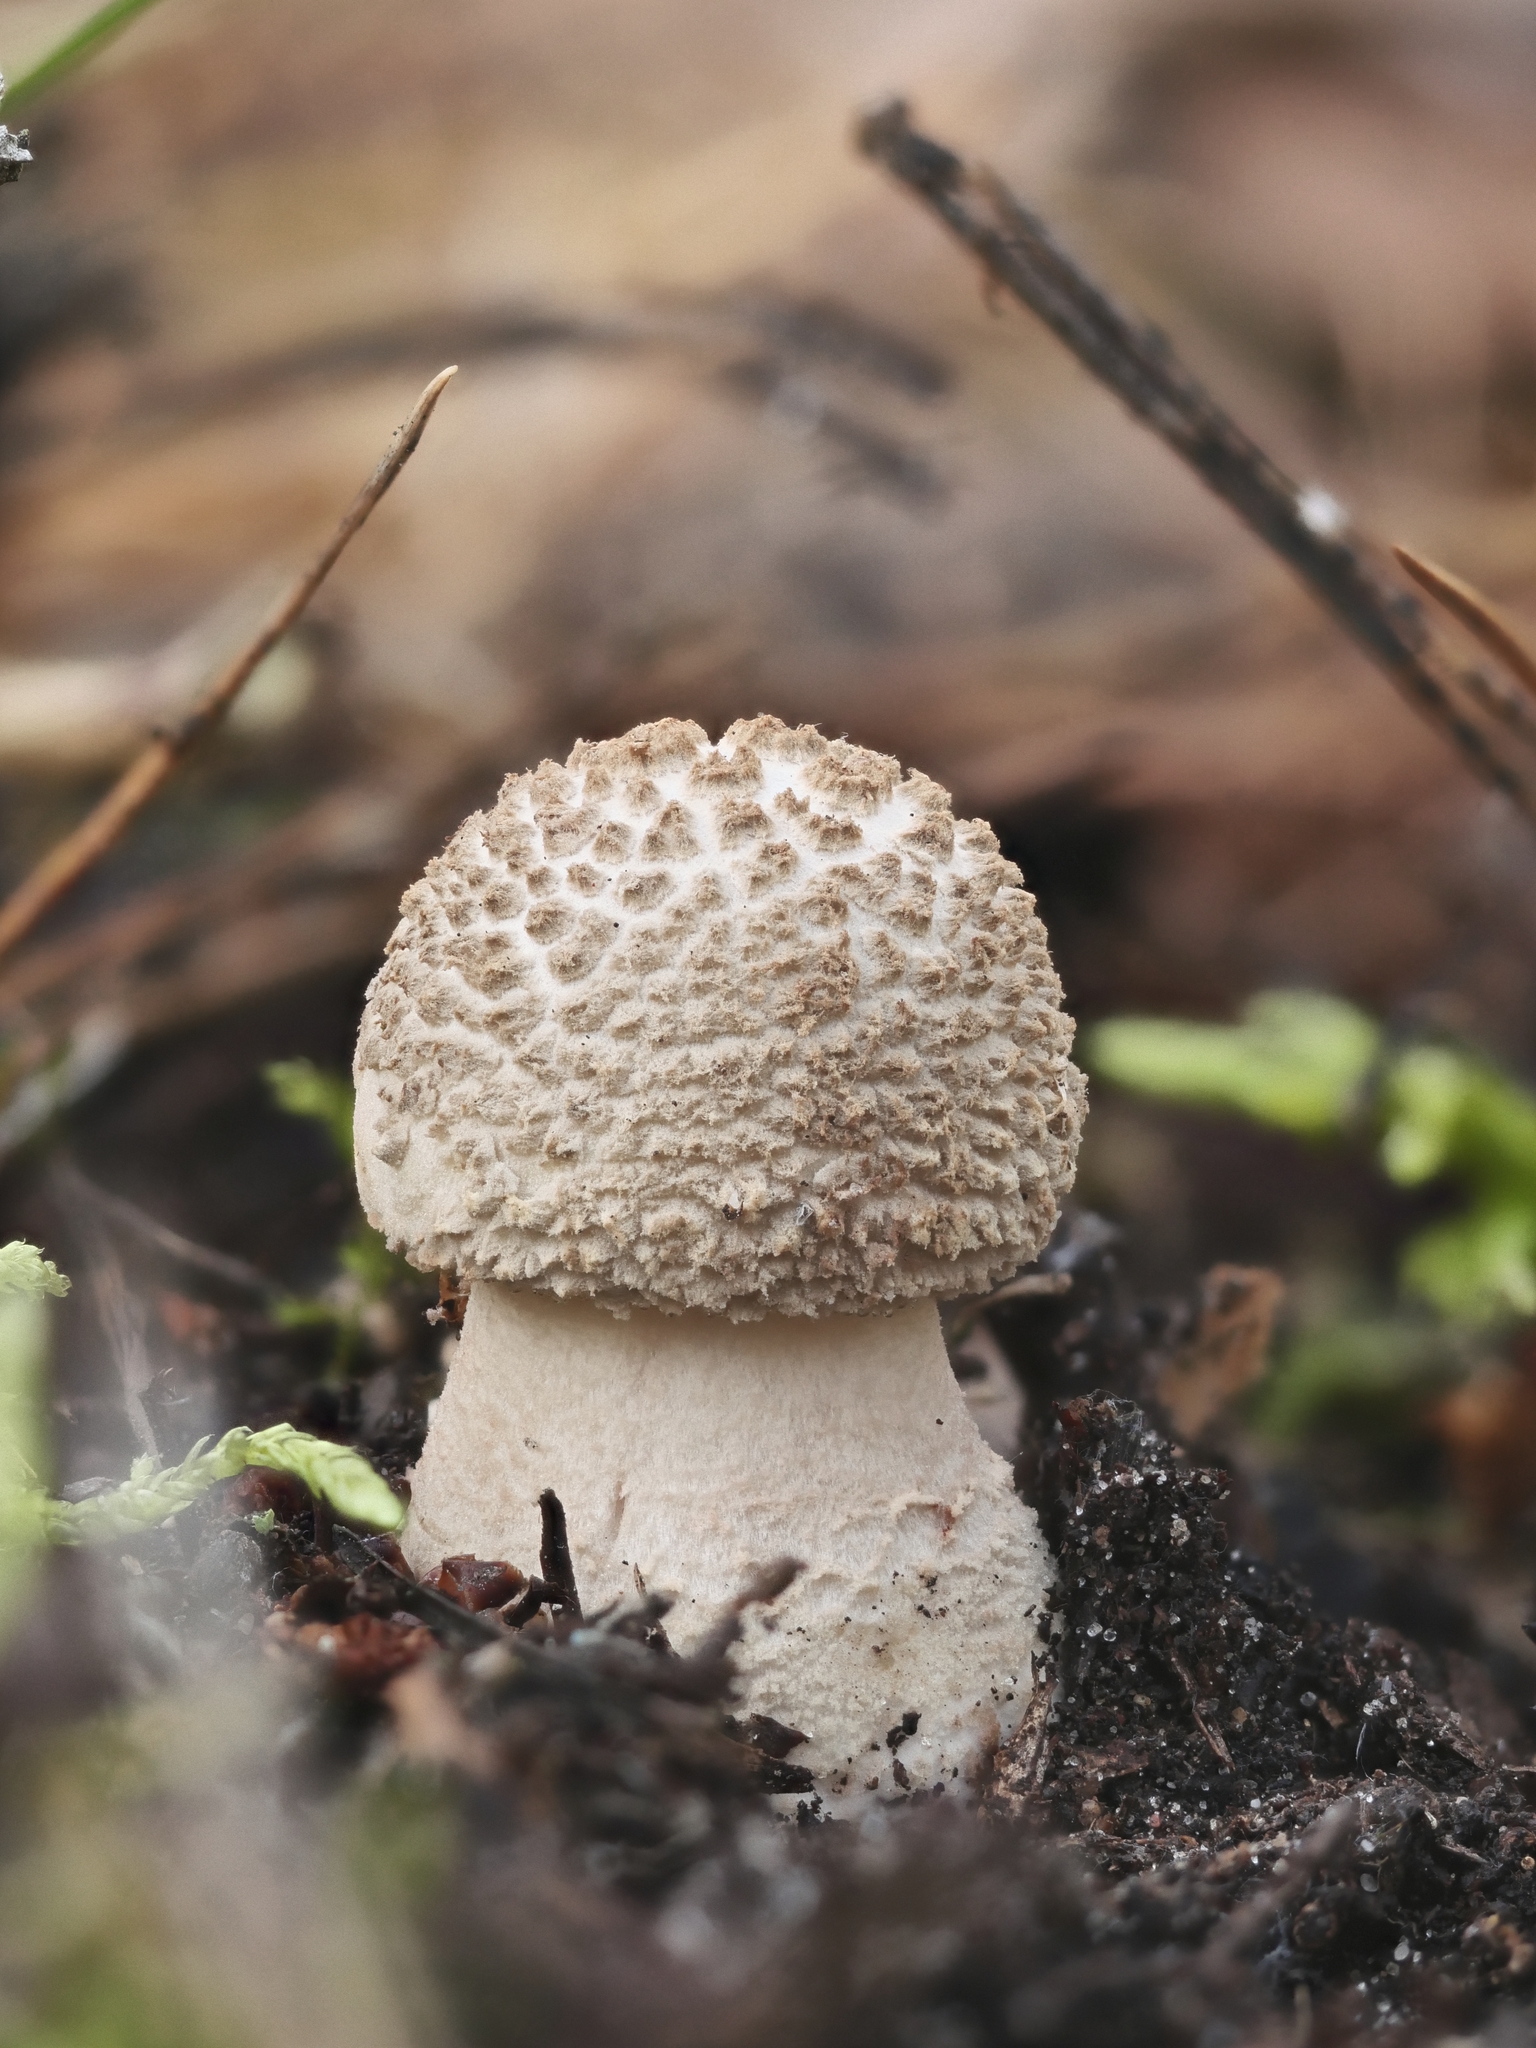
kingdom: Fungi
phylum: Basidiomycota
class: Agaricomycetes
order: Agaricales
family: Amanitaceae
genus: Amanita
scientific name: Amanita rubescens
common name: Blusher
